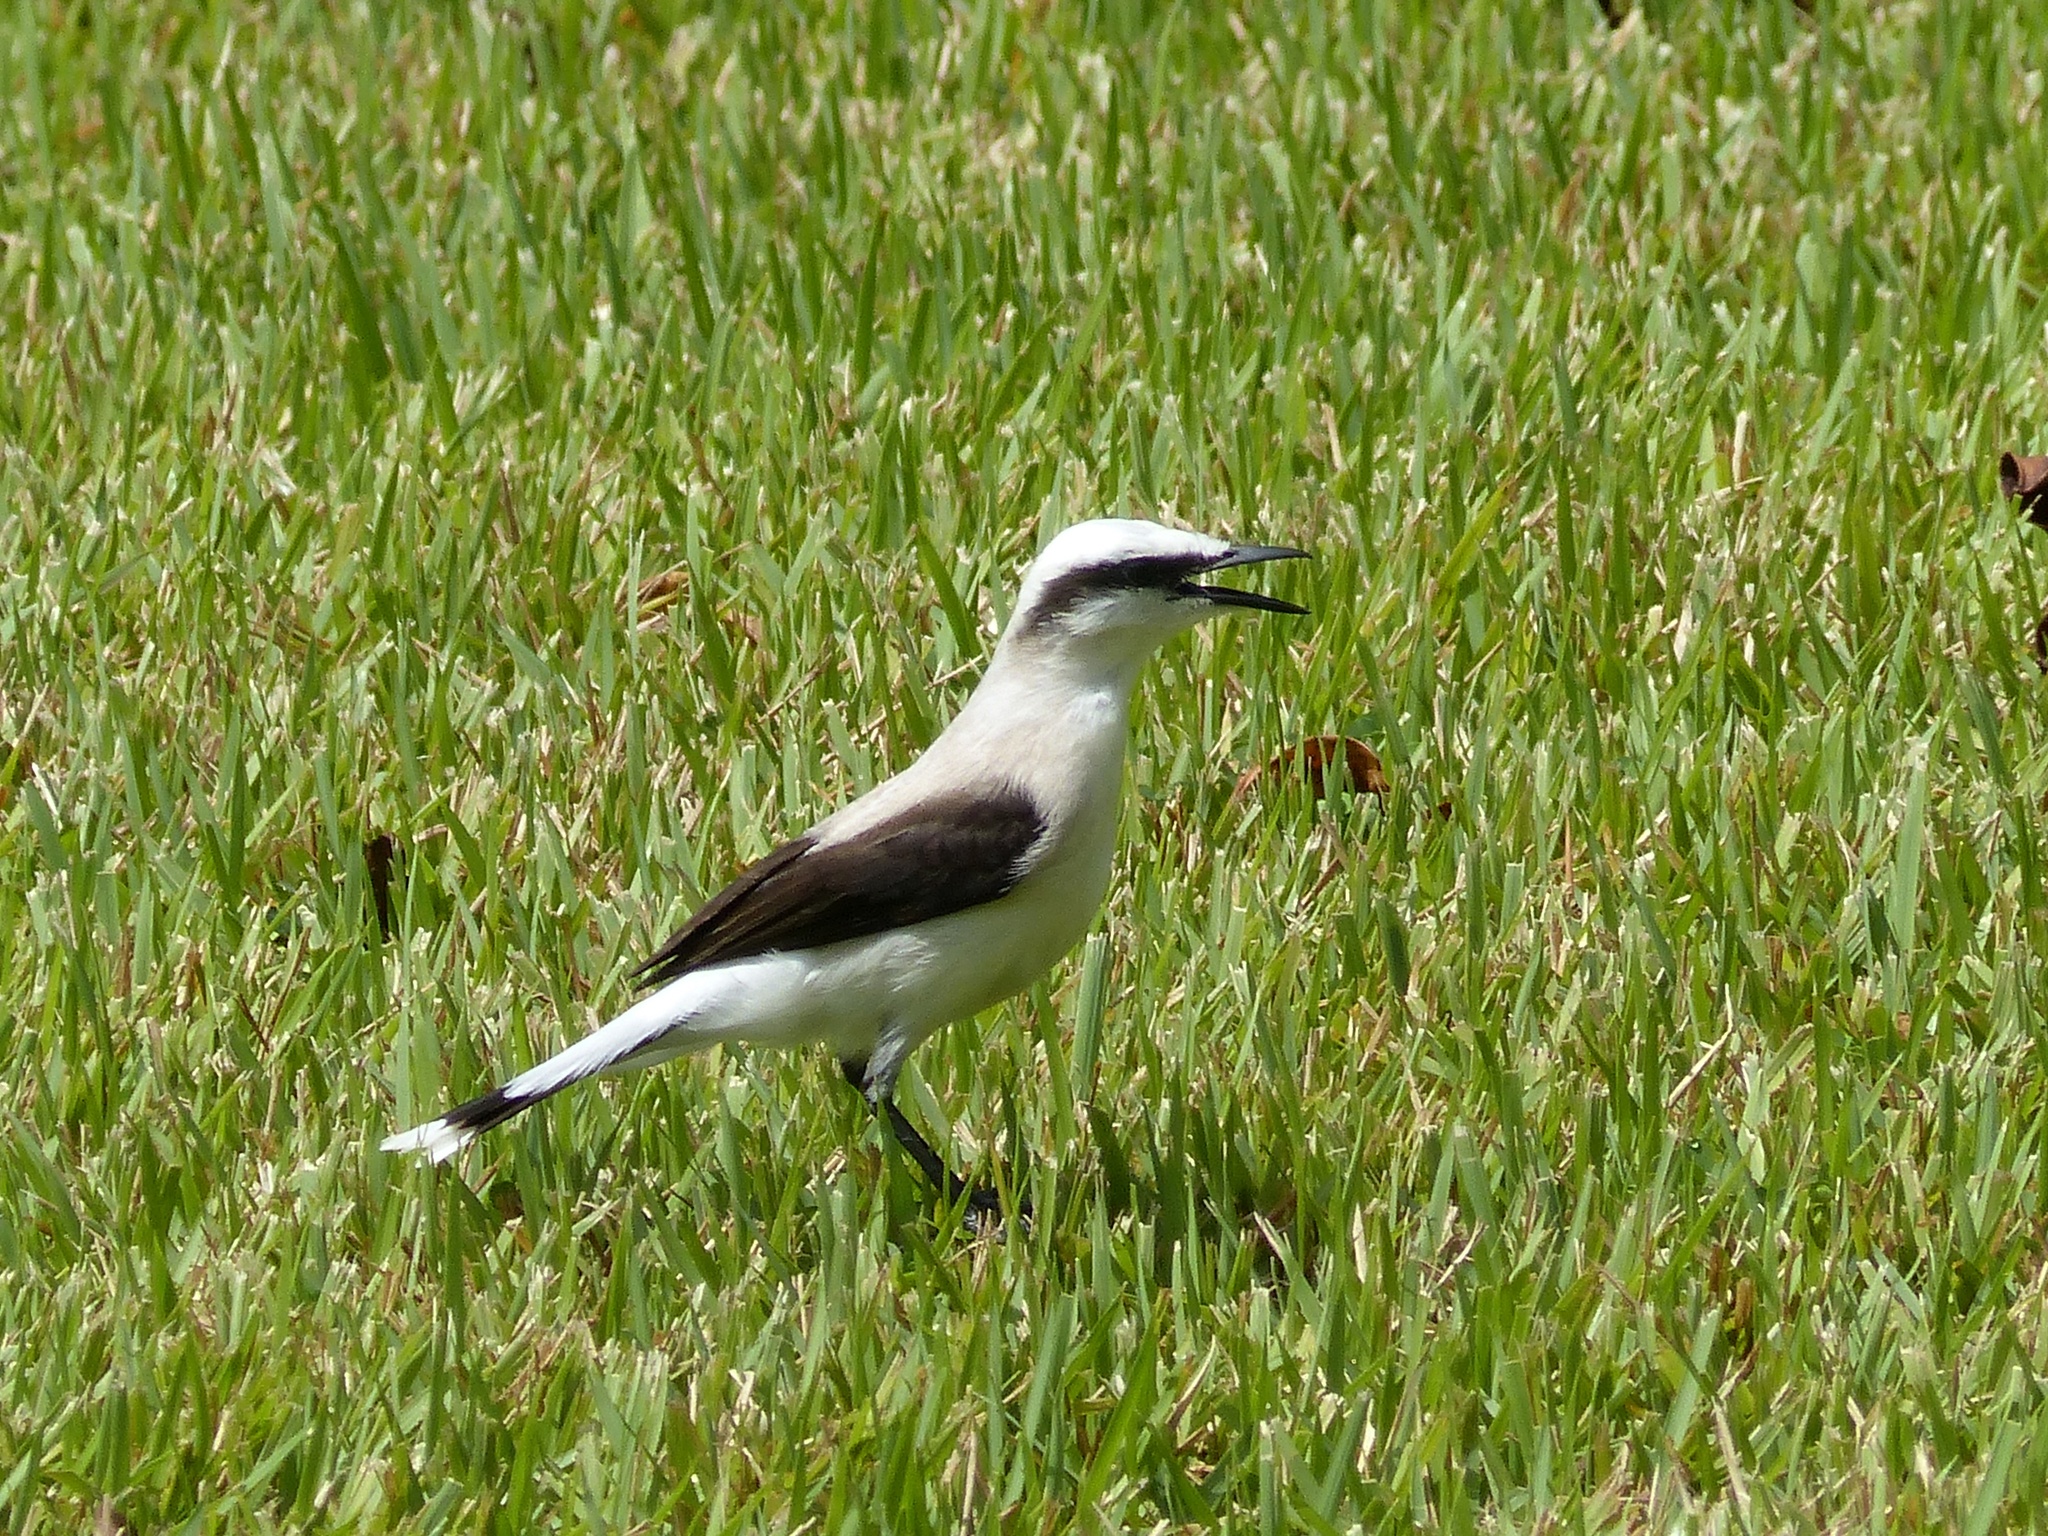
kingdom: Animalia
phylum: Chordata
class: Aves
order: Passeriformes
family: Tyrannidae
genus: Fluvicola
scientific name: Fluvicola nengeta
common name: Masked water tyrant
